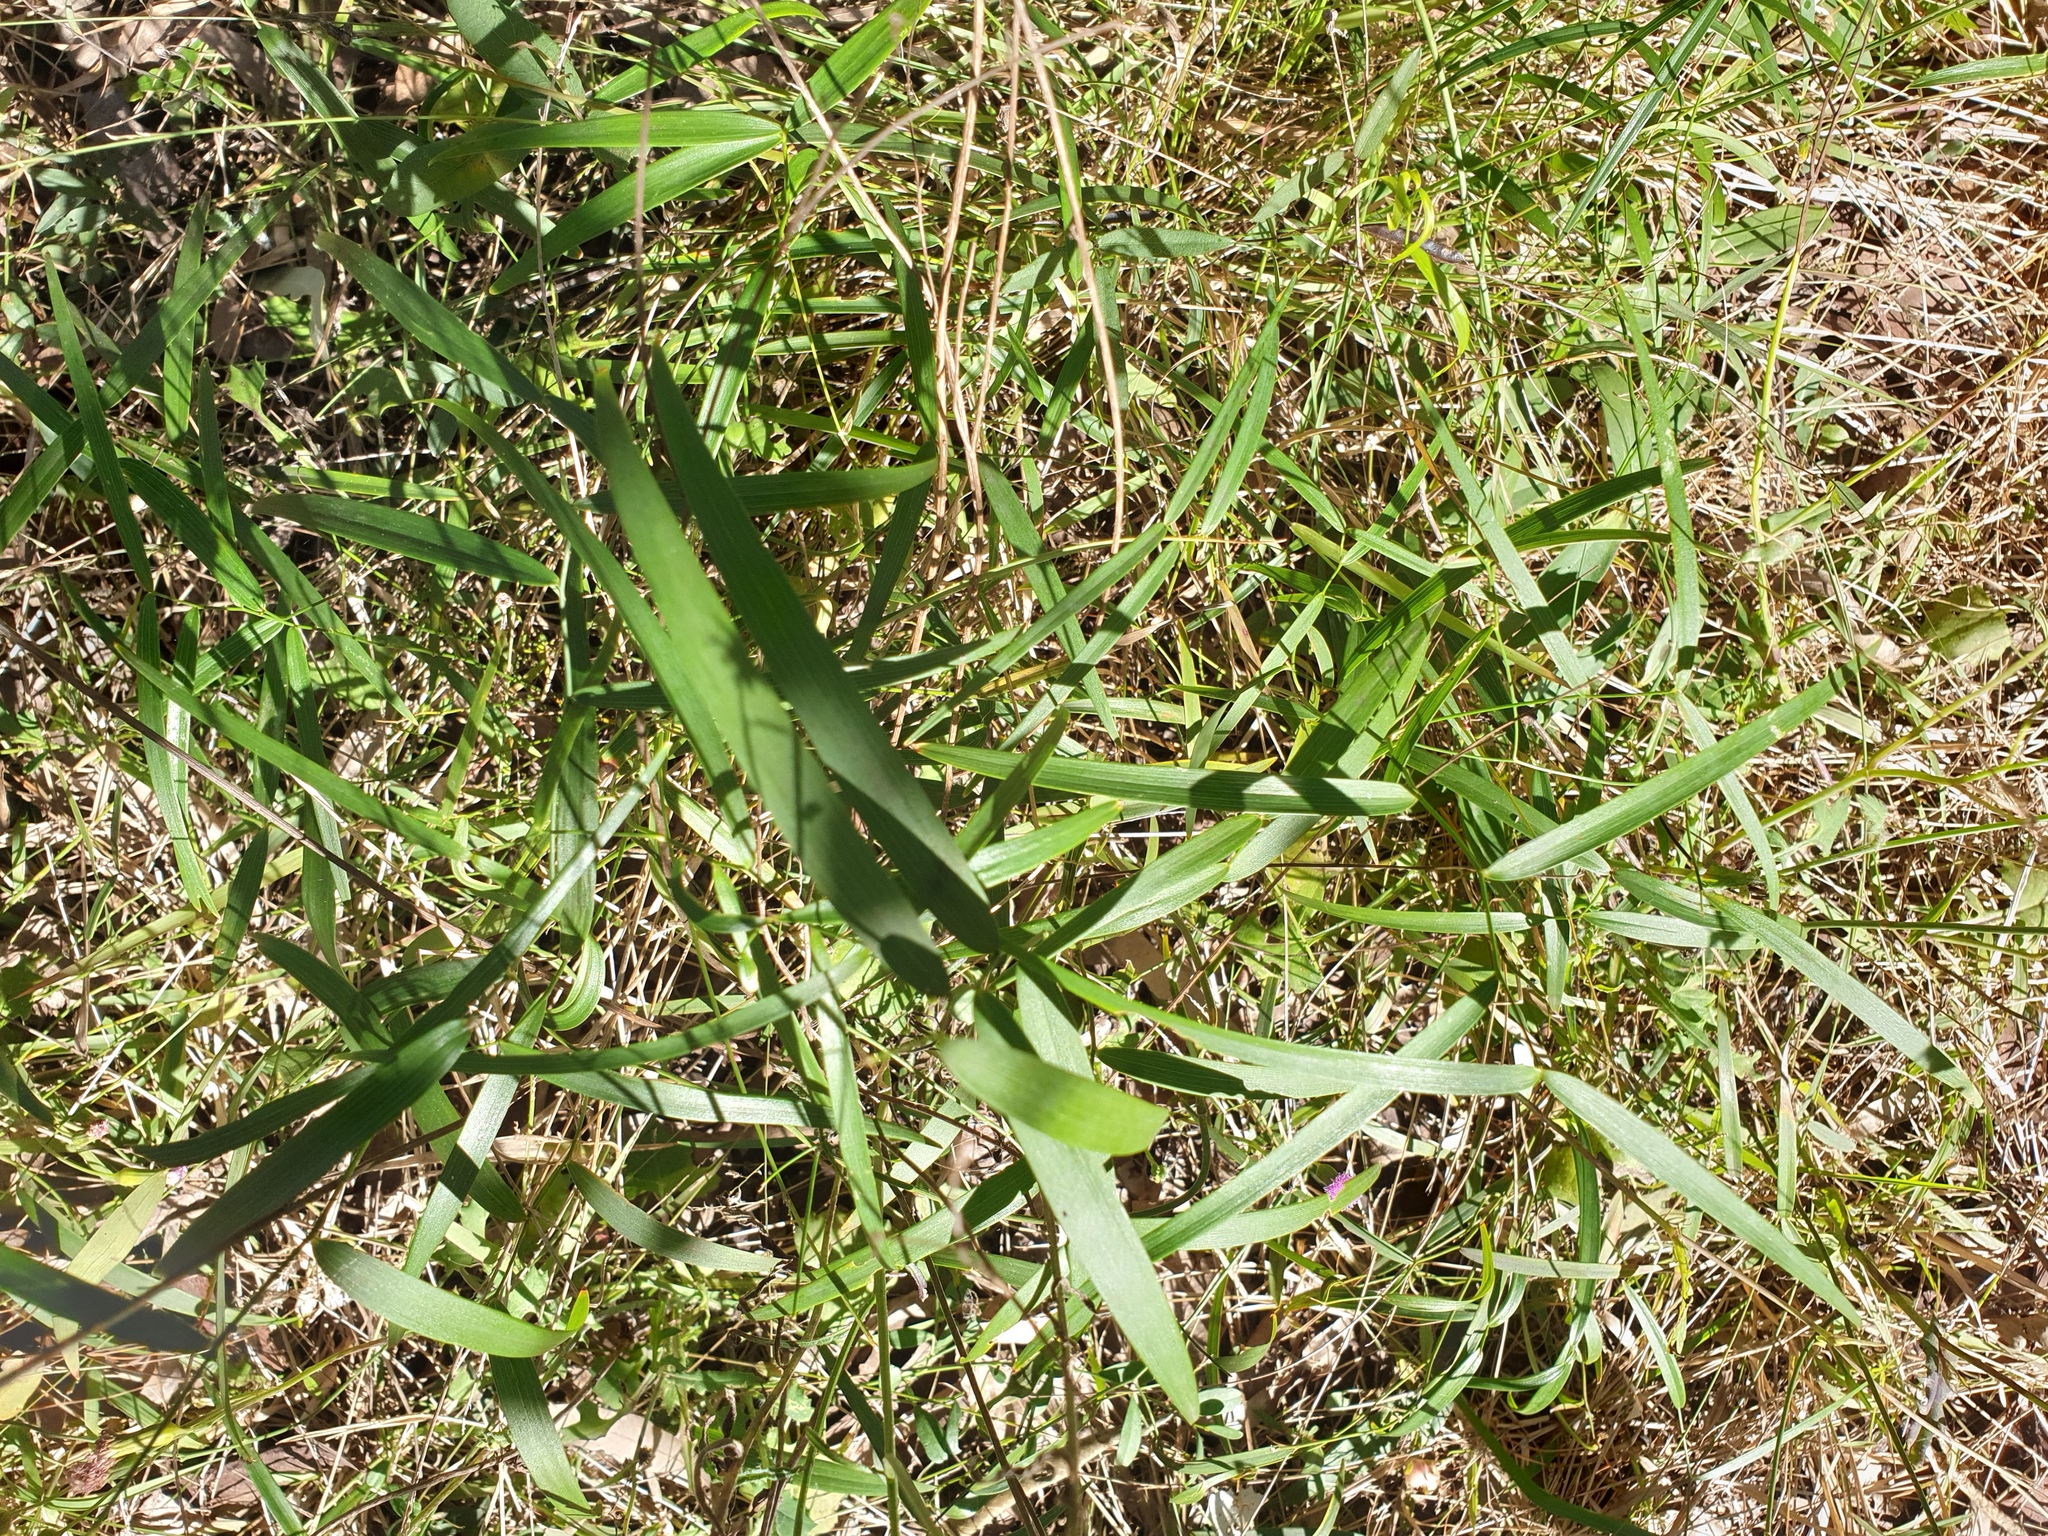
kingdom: Plantae
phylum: Tracheophyta
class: Liliopsida
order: Asparagales
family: Asparagaceae
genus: Eustrephus
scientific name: Eustrephus latifolius
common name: Orangevine
